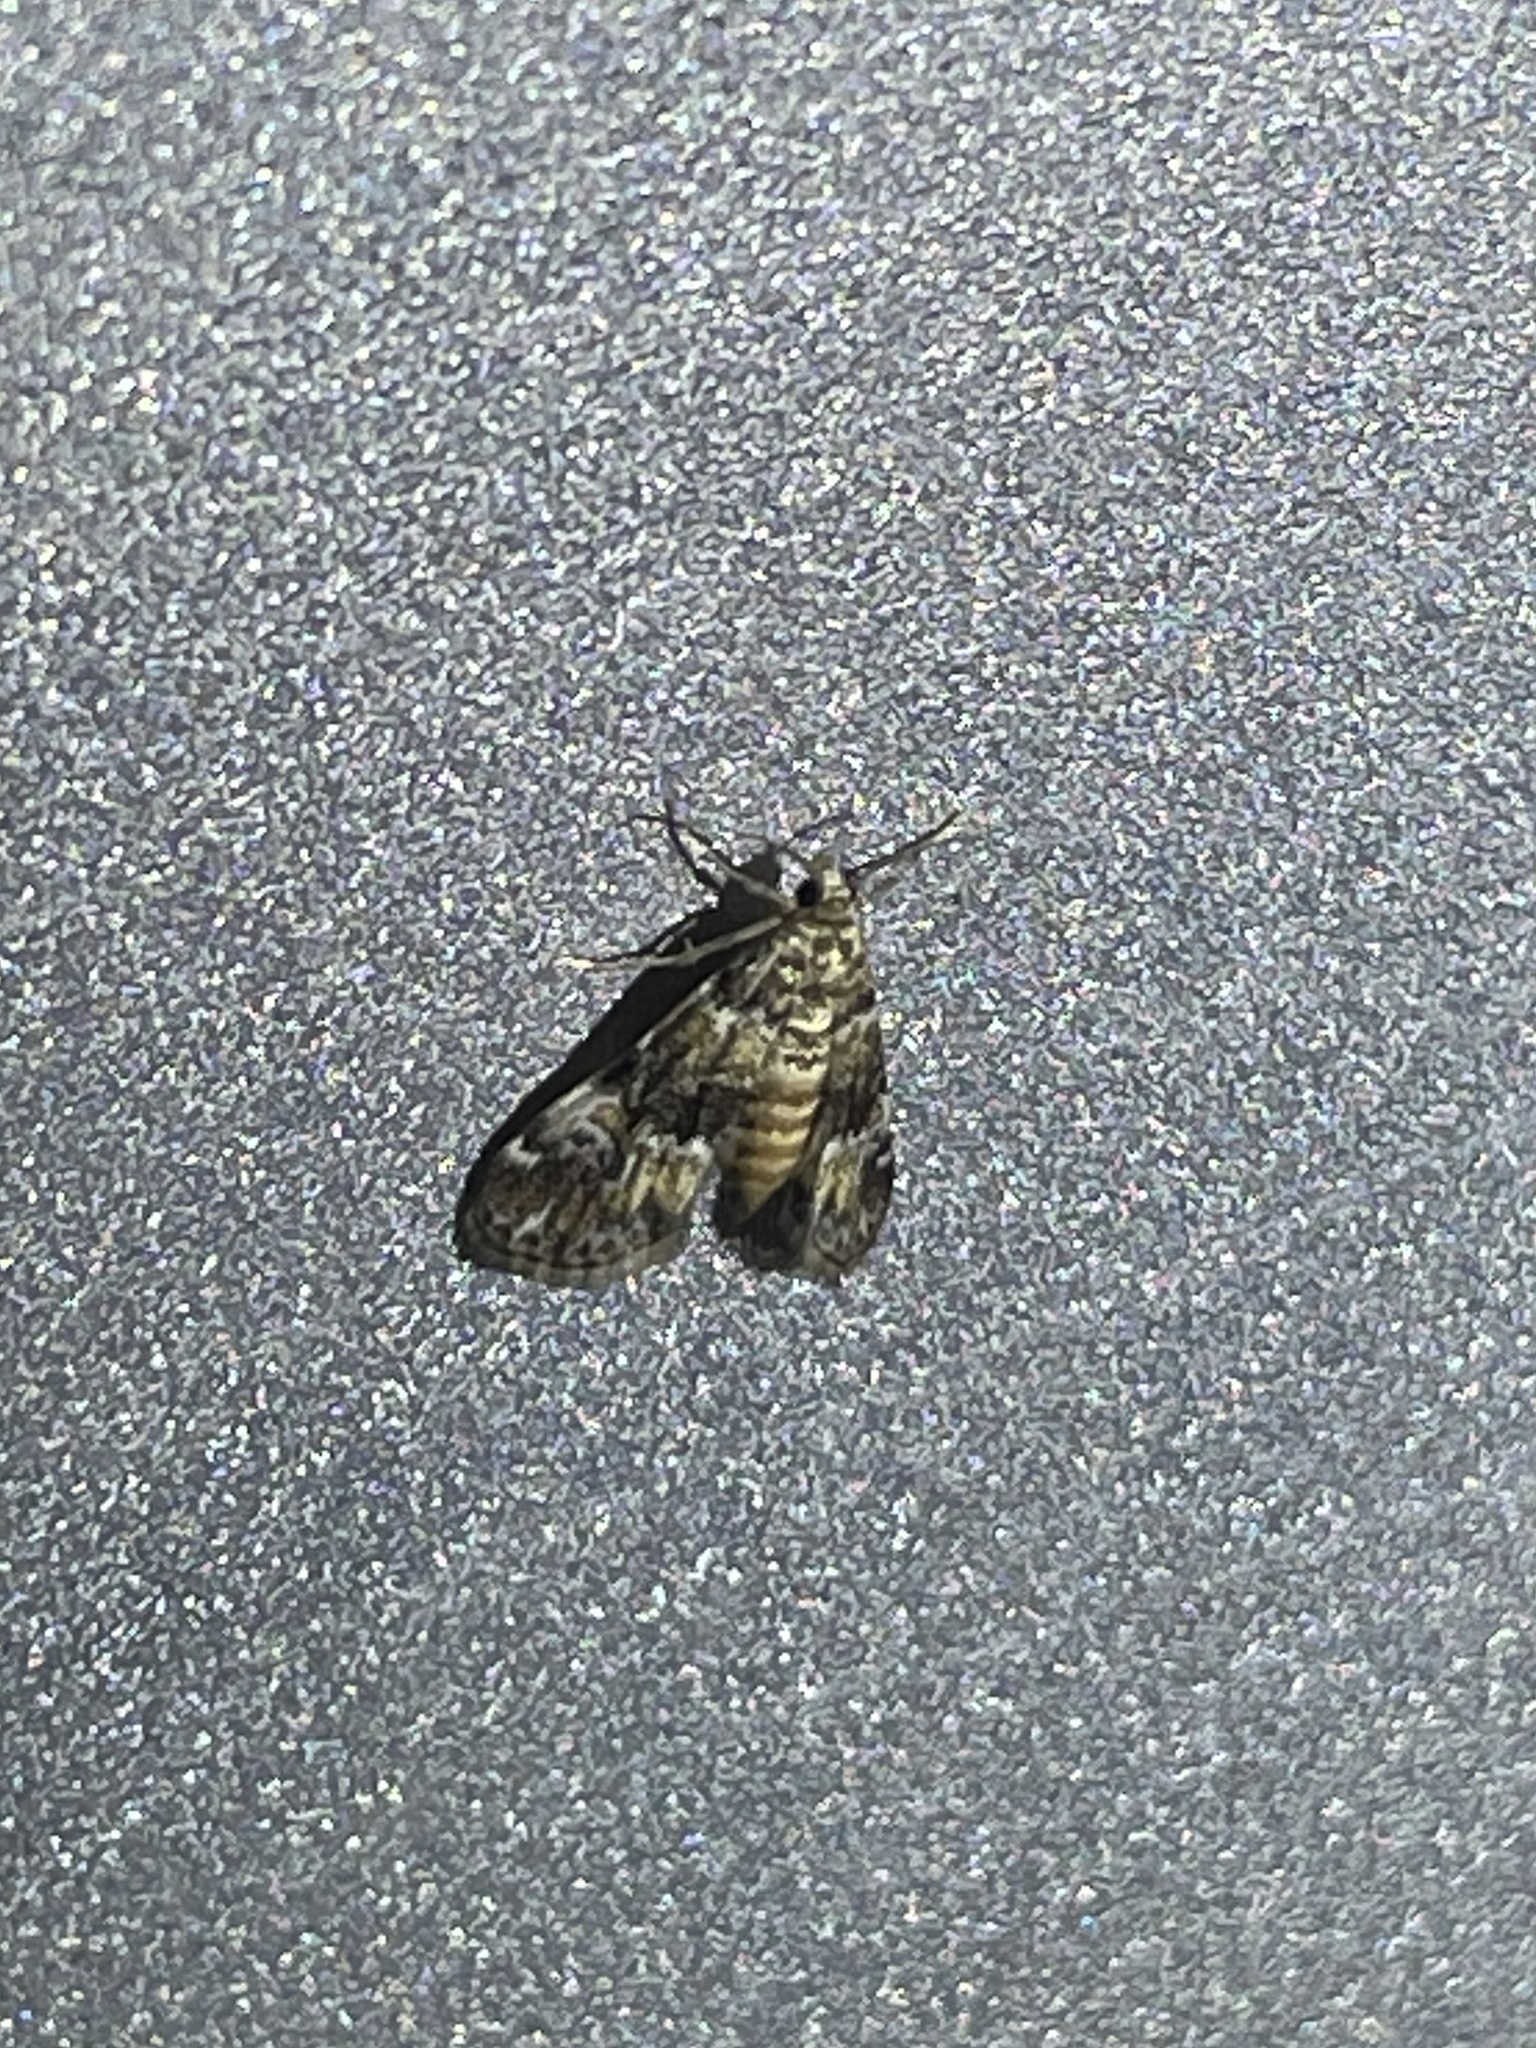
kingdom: Animalia
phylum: Arthropoda
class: Insecta
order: Lepidoptera
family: Crambidae
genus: Elophila
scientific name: Elophila obliteralis
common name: Waterlily leafcutter moth
